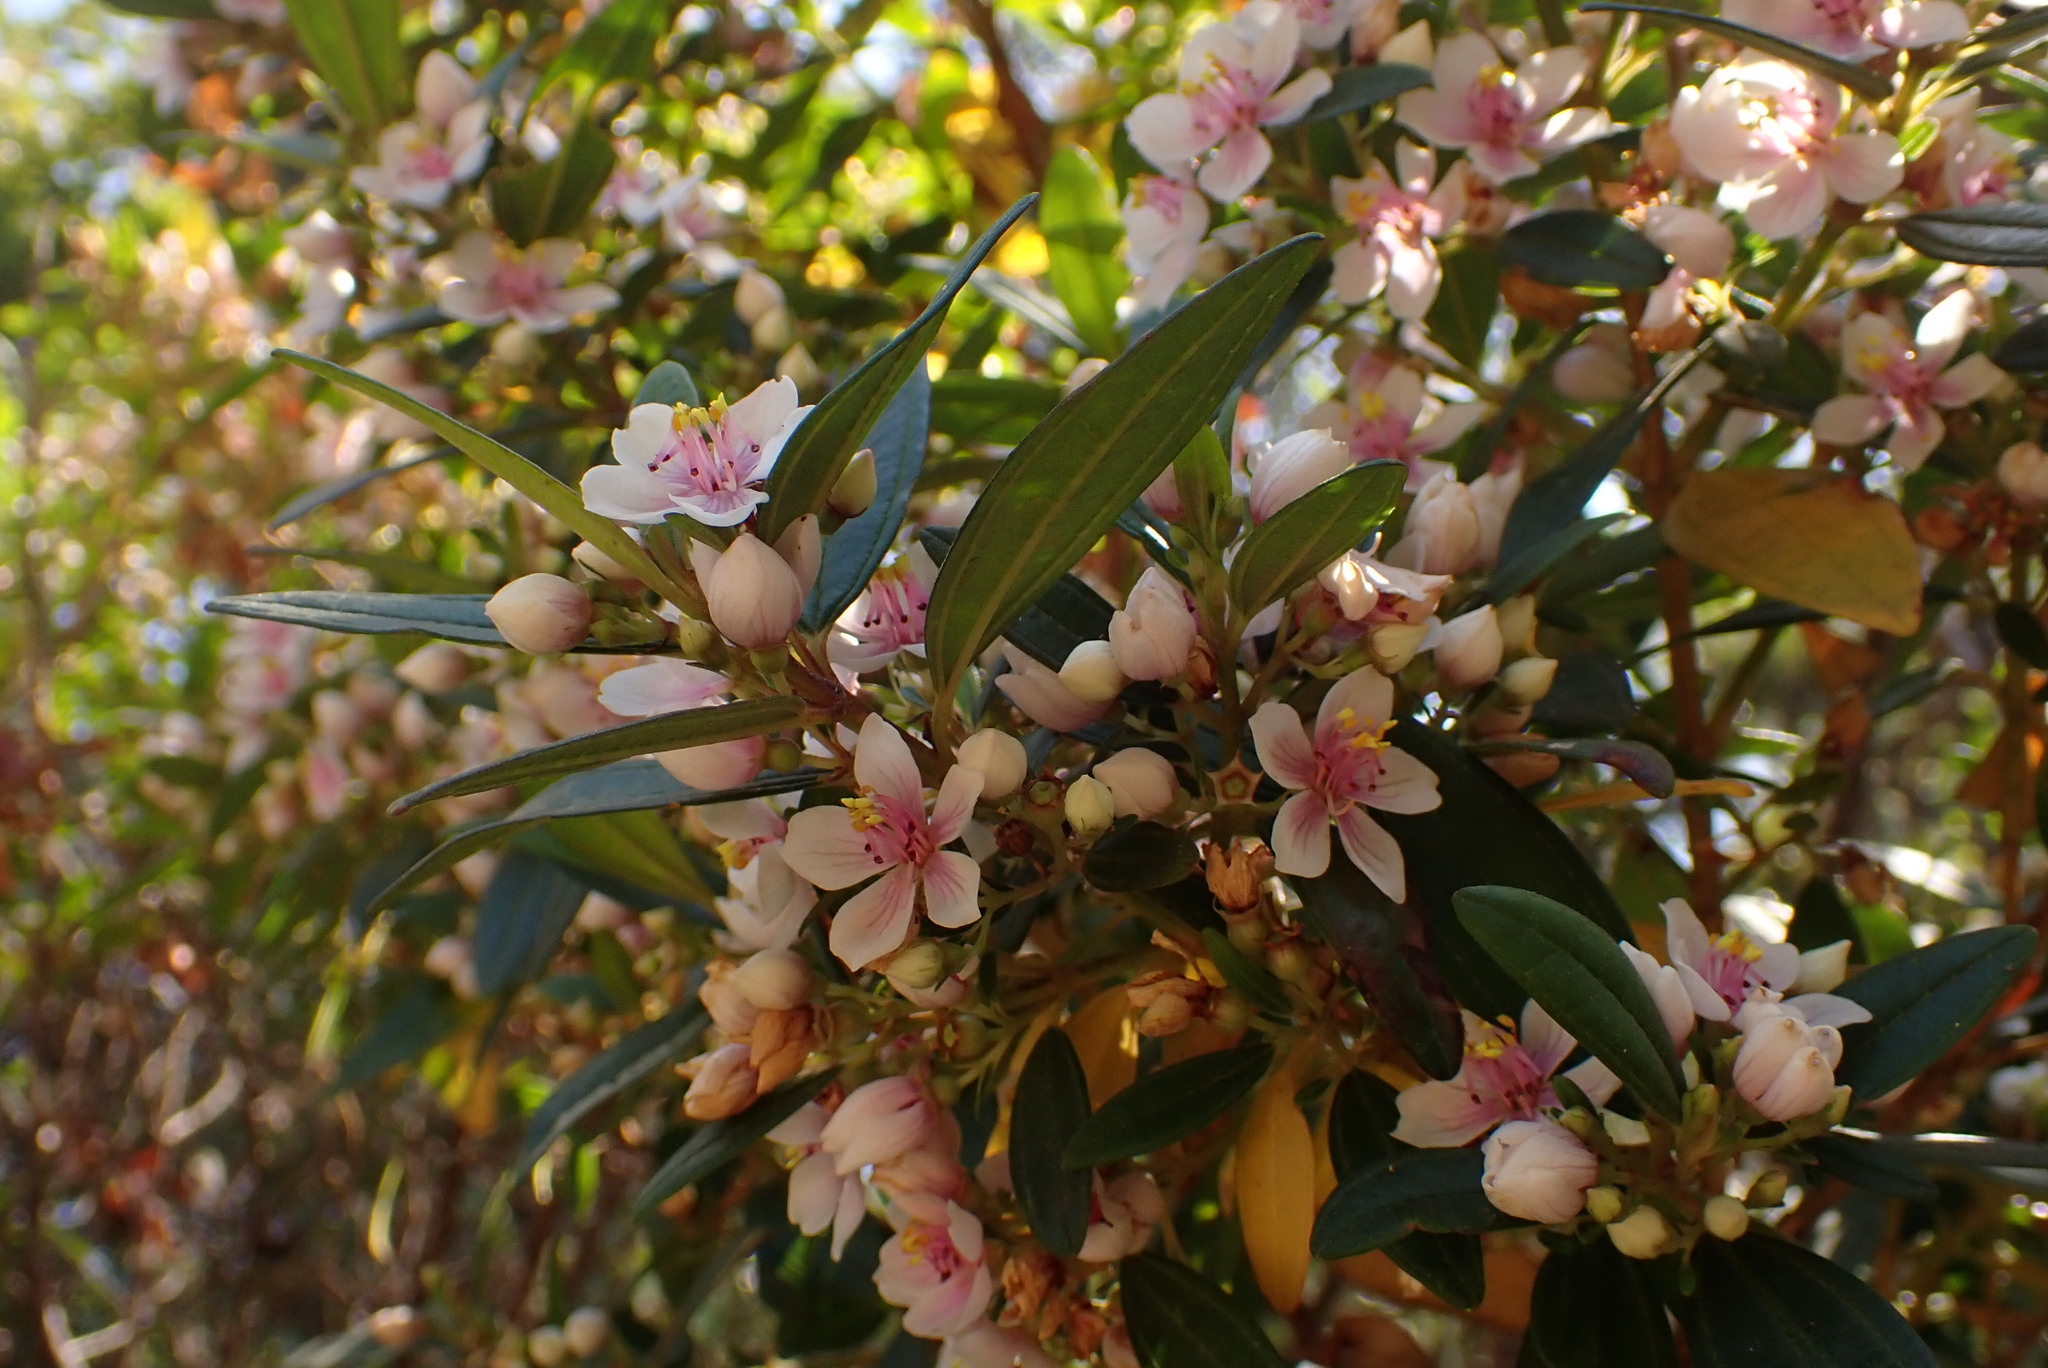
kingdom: Plantae
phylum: Tracheophyta
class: Magnoliopsida
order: Myrtales
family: Melastomataceae
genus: Microlicia
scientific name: Microlicia parviflora
